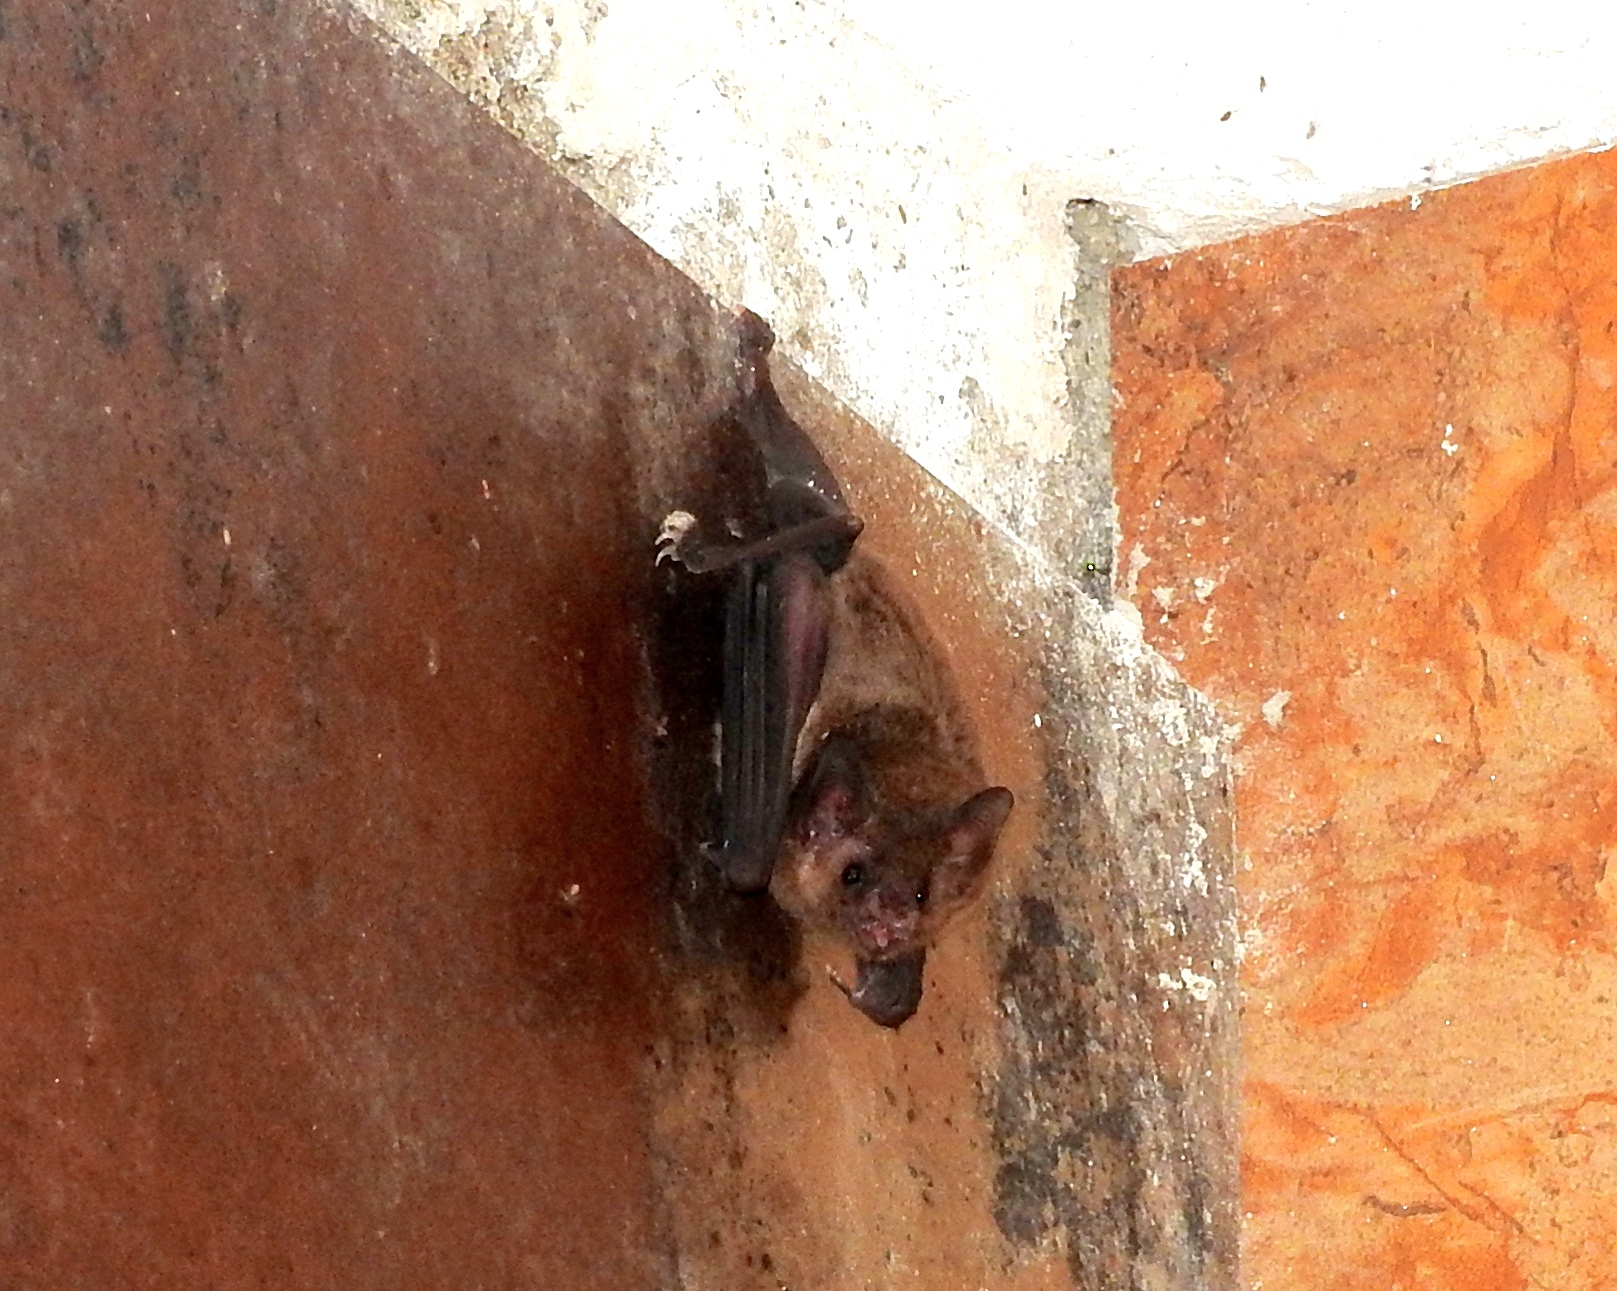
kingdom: Animalia
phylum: Chordata
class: Mammalia
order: Chiroptera
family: Phyllostomidae
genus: Glossophaga
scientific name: Glossophaga
